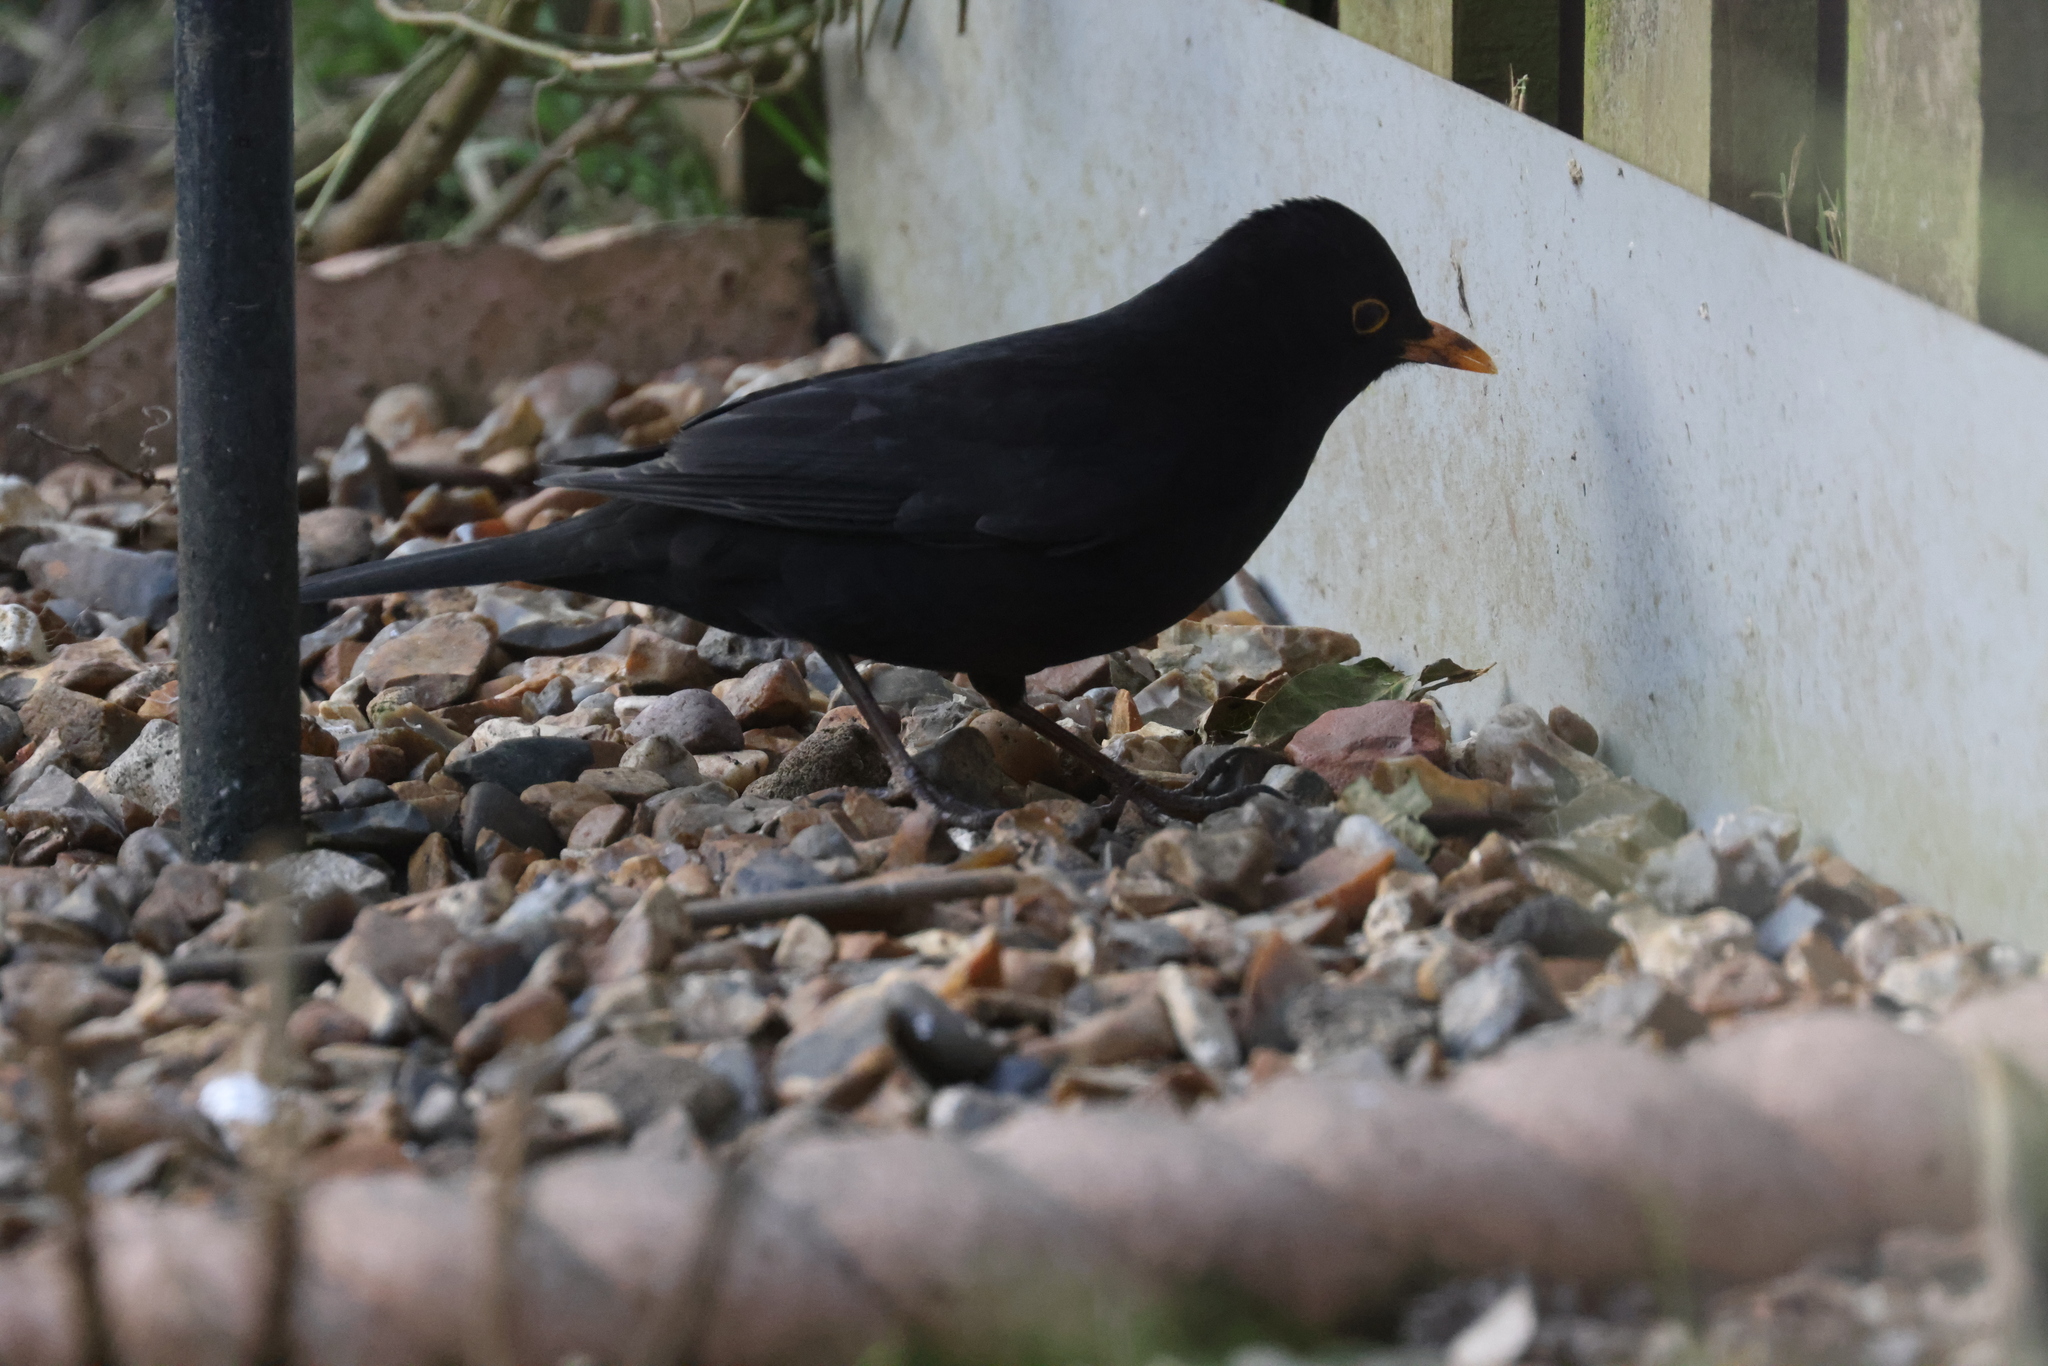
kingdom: Animalia
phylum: Chordata
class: Aves
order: Passeriformes
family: Turdidae
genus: Turdus
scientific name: Turdus merula
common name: Common blackbird
